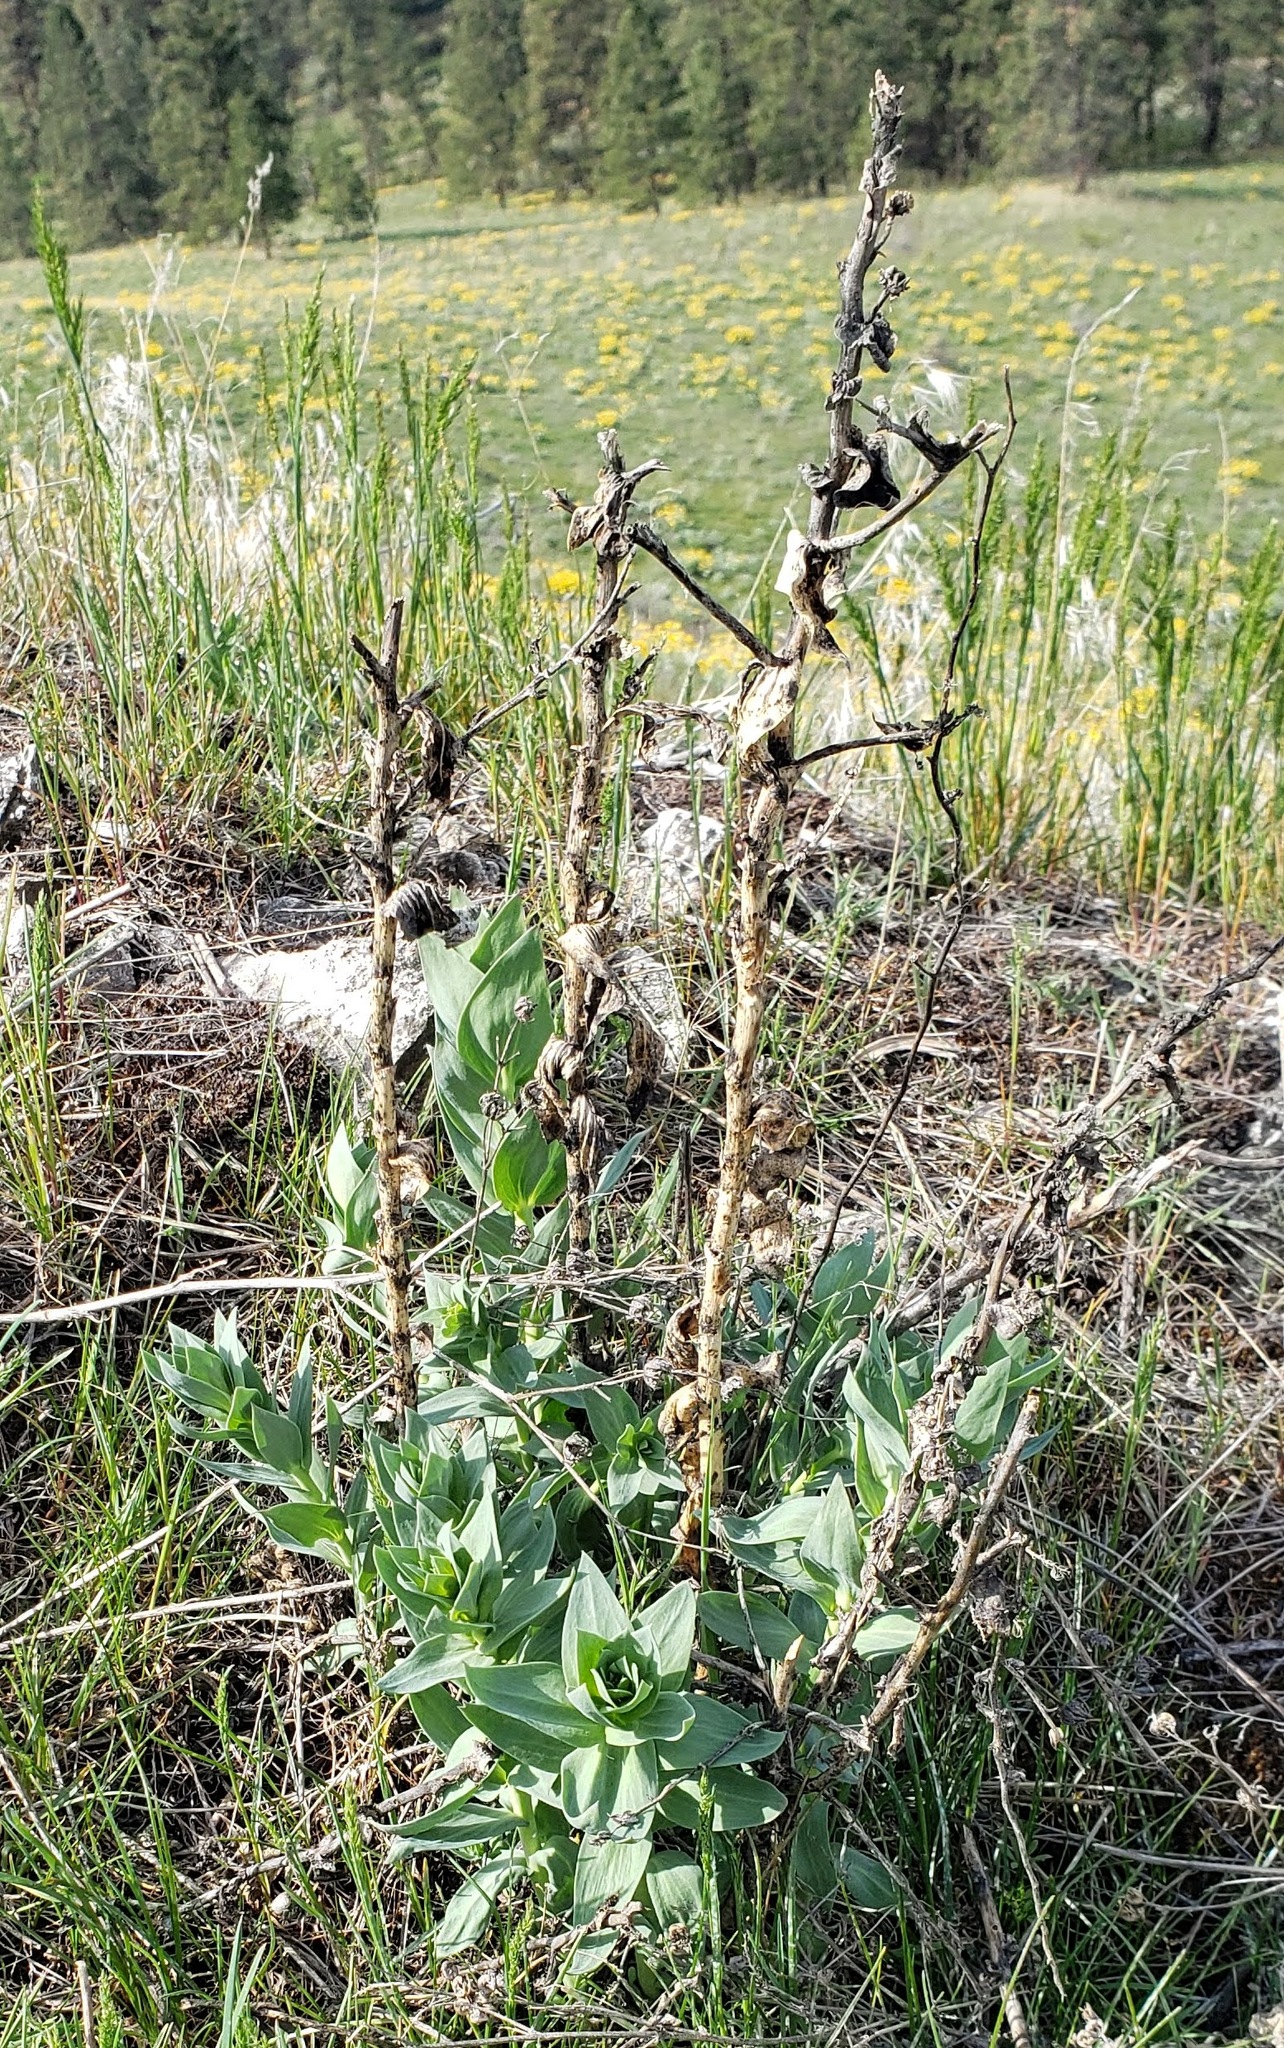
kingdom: Plantae
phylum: Tracheophyta
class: Magnoliopsida
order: Lamiales
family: Plantaginaceae
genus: Linaria
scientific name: Linaria dalmatica
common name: Dalmatian toadflax
